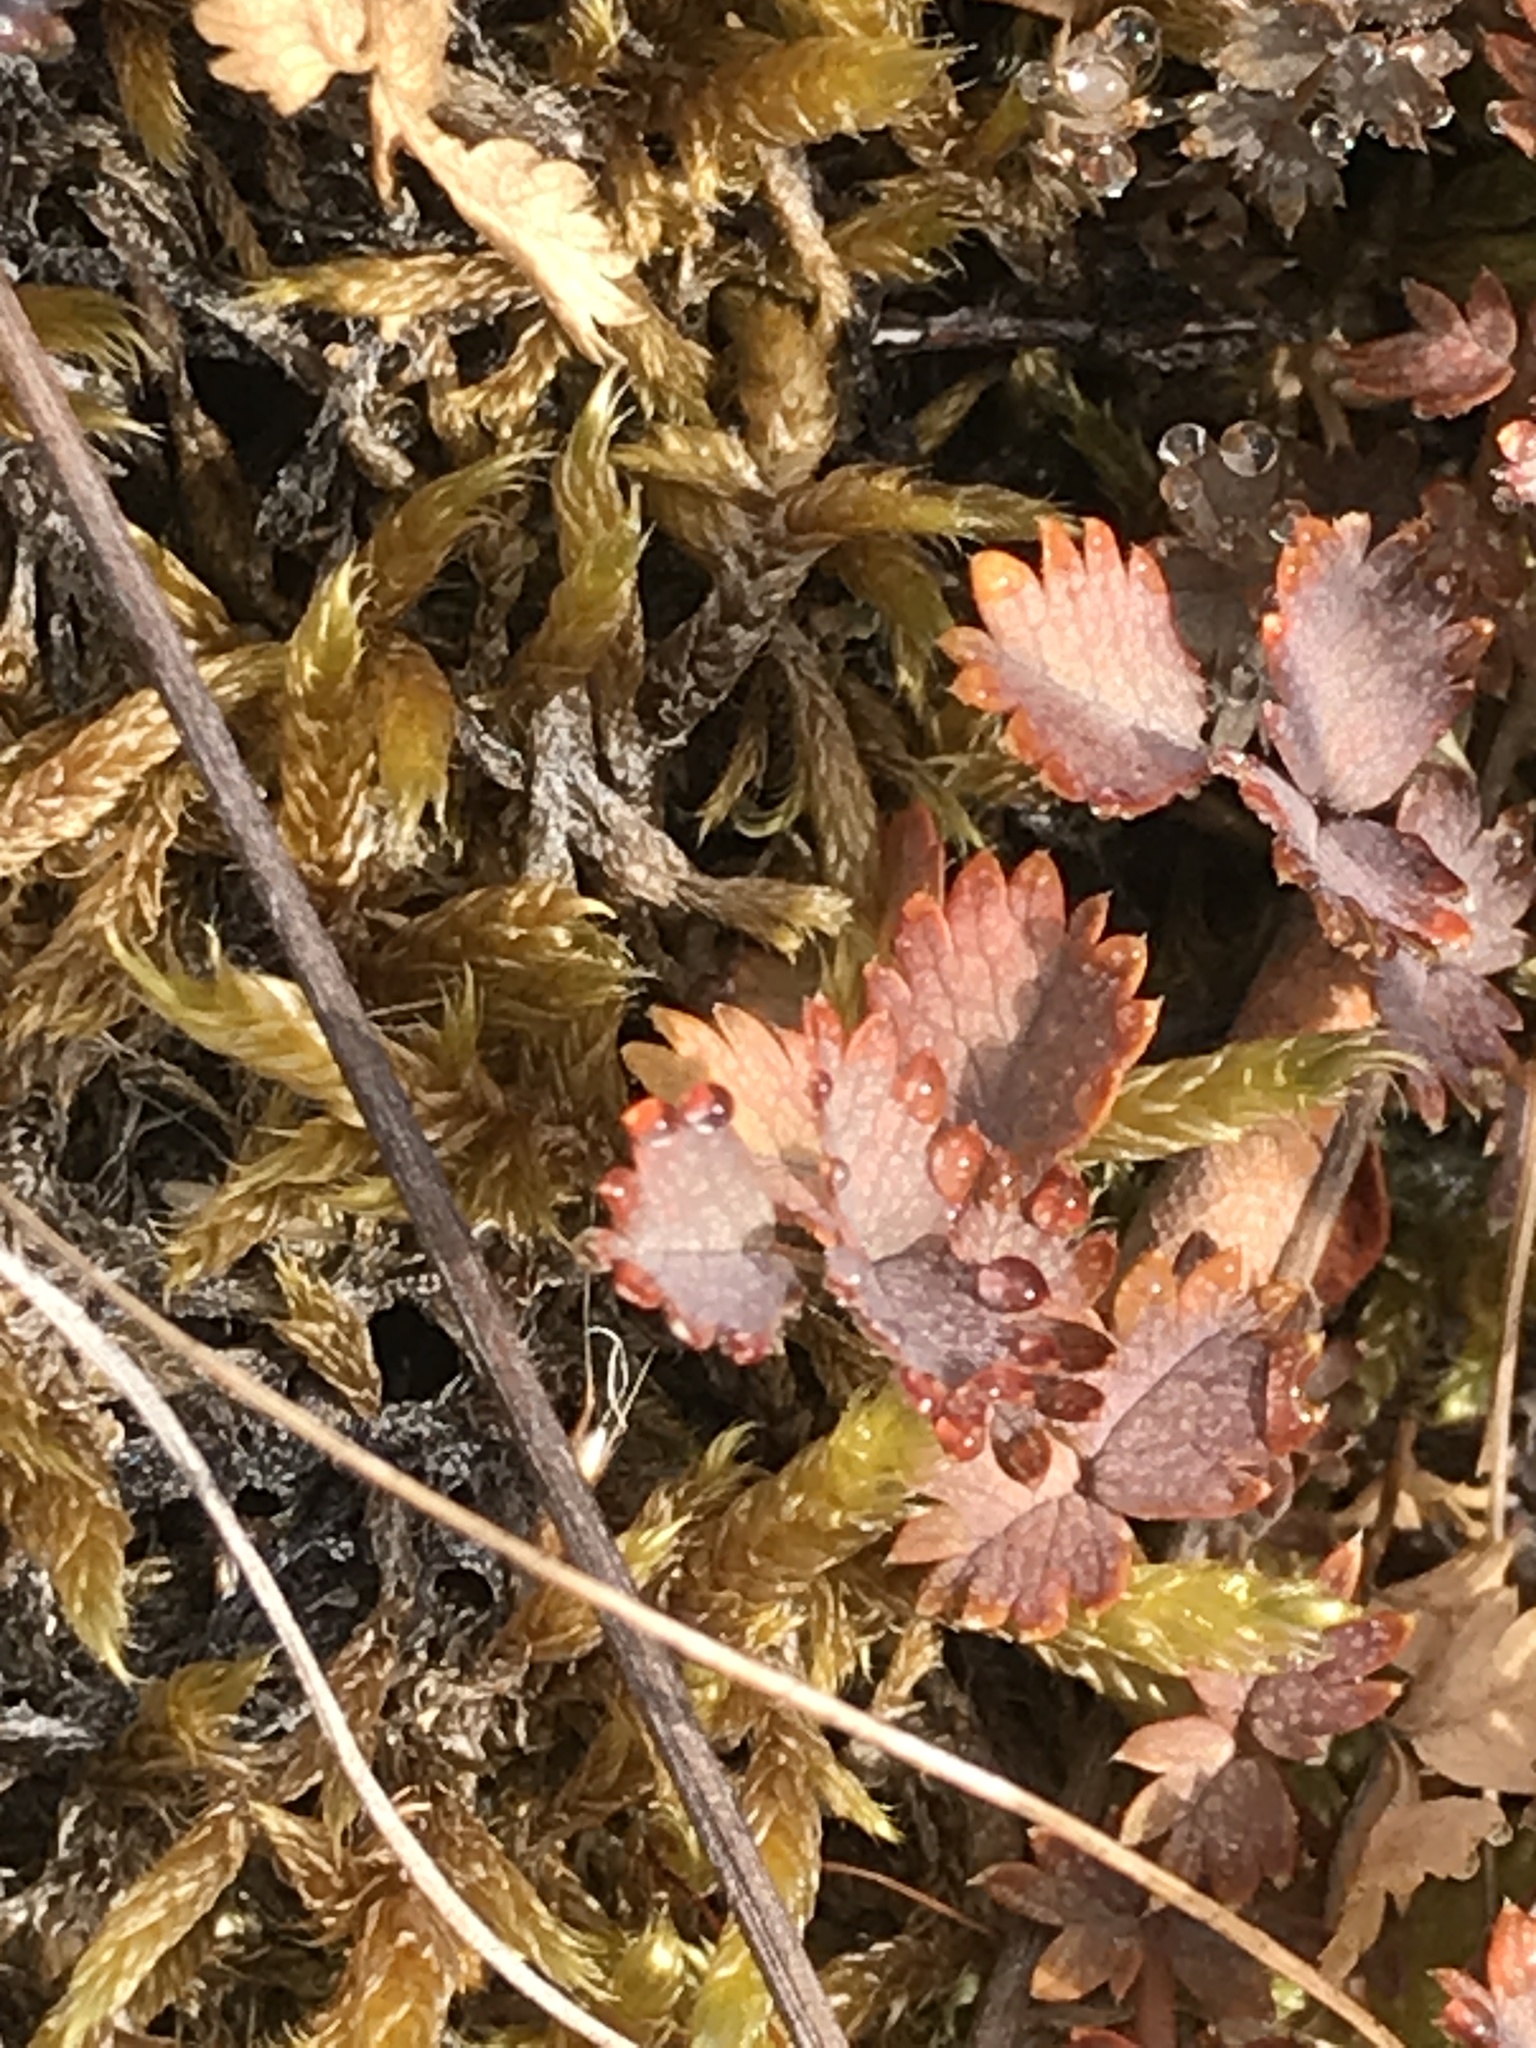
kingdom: Plantae
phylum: Tracheophyta
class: Magnoliopsida
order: Rosales
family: Rosaceae
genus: Acaena
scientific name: Acaena inermis
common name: Spineless acaena
